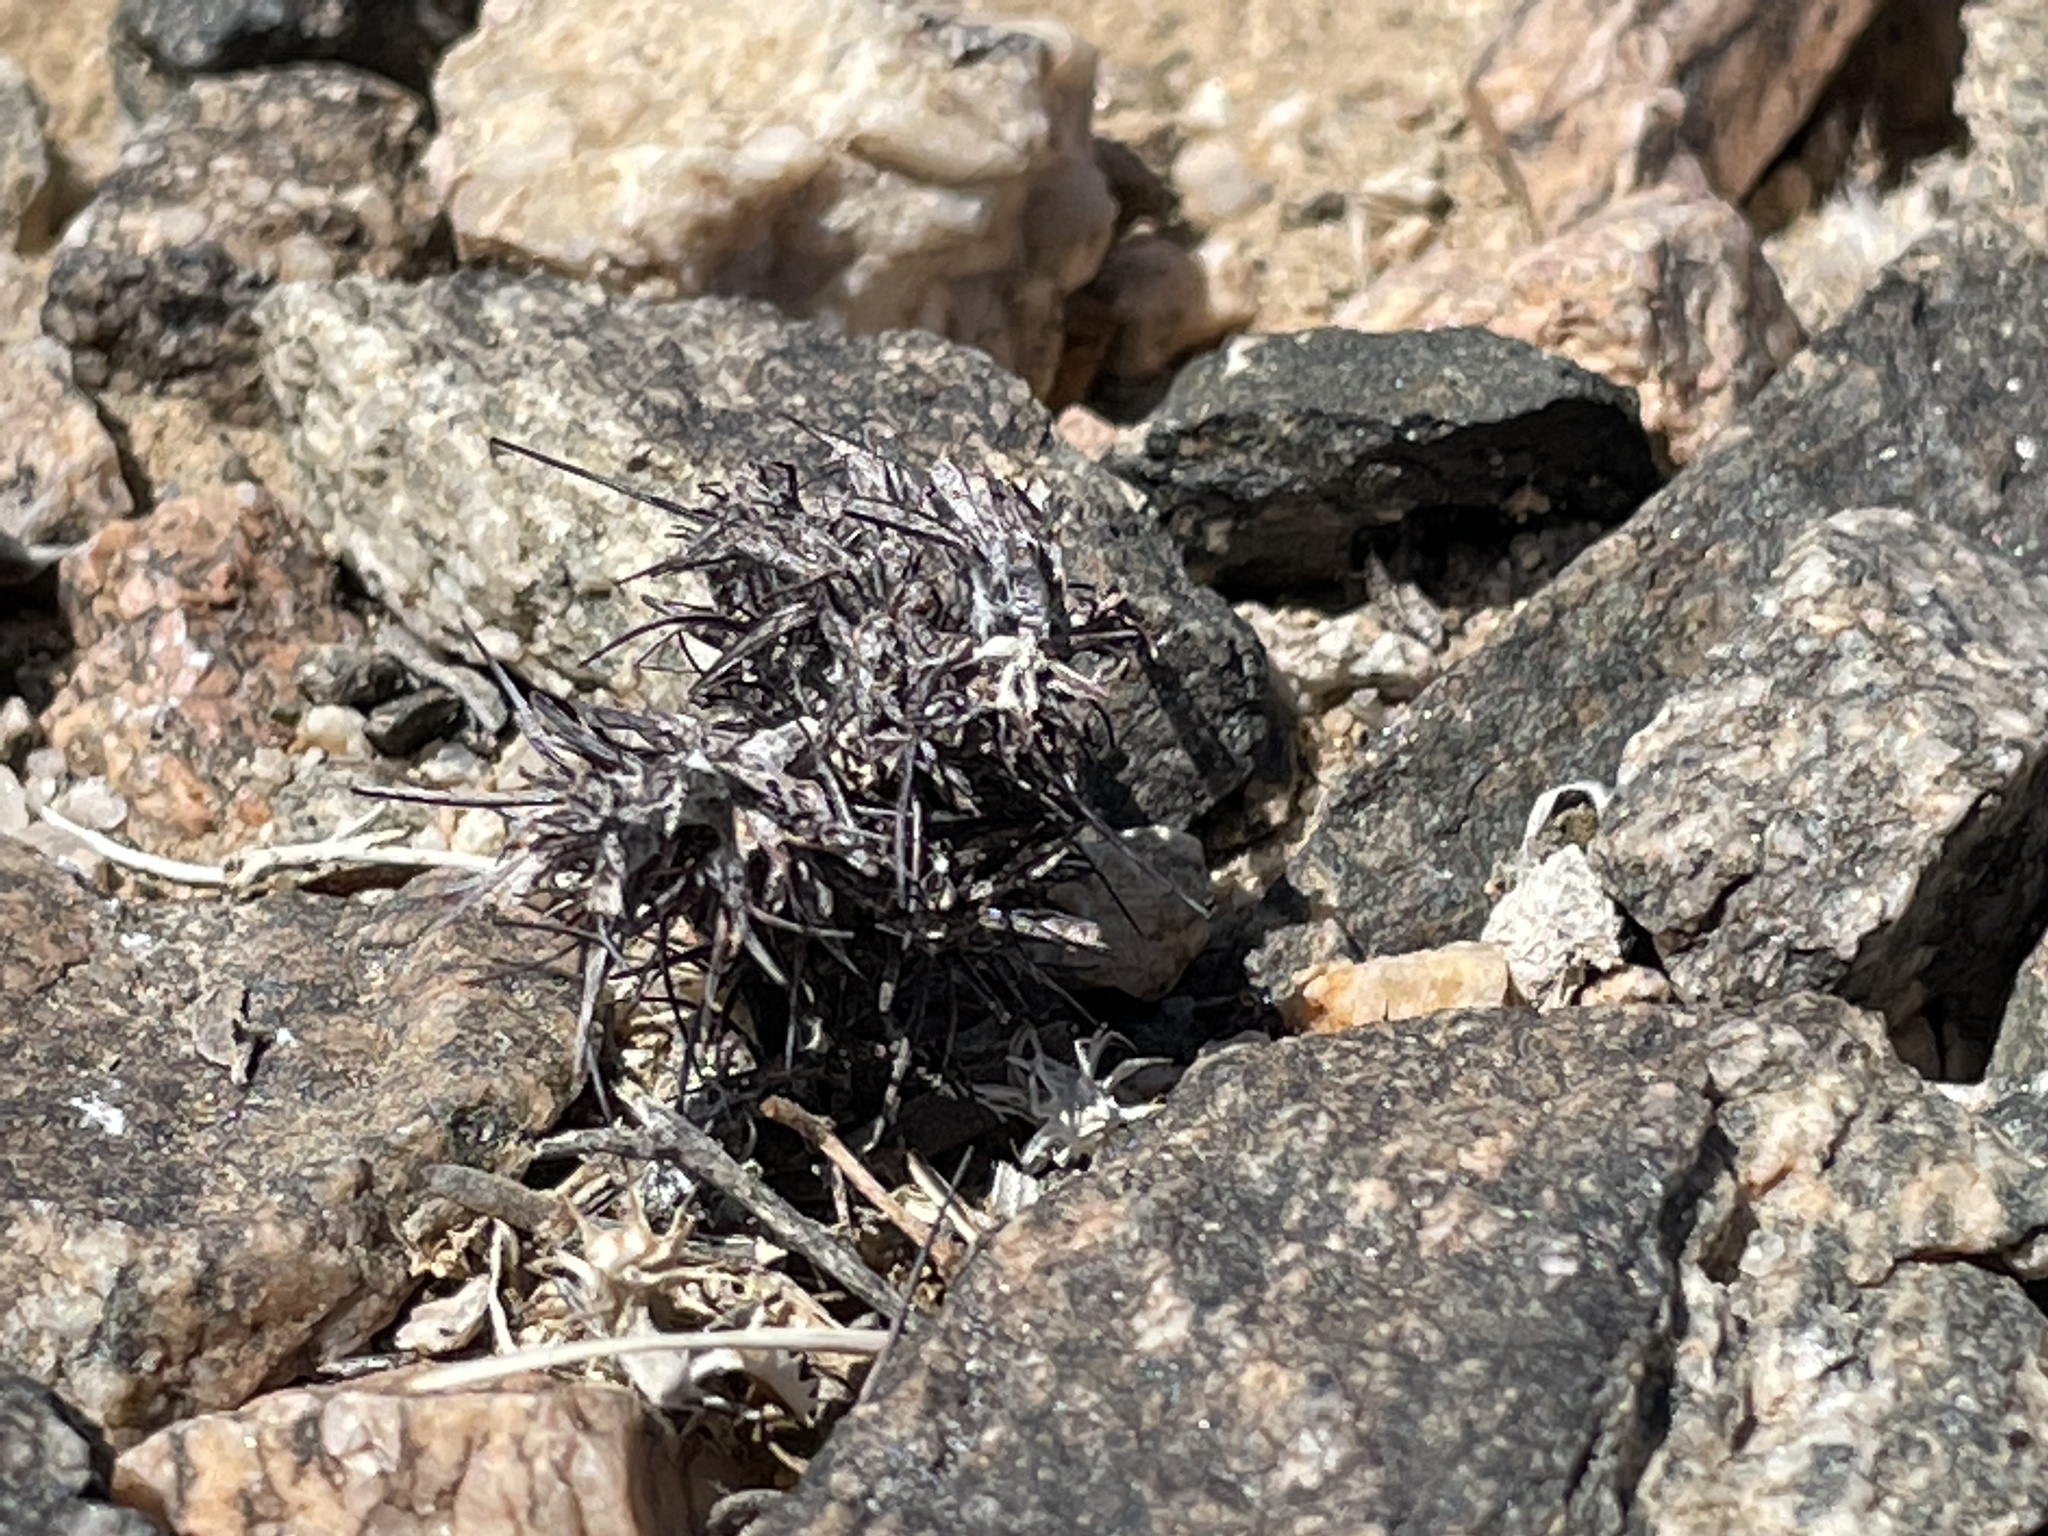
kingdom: Plantae
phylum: Tracheophyta
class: Magnoliopsida
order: Caryophyllales
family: Polygonaceae
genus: Chorizanthe
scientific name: Chorizanthe rigida
